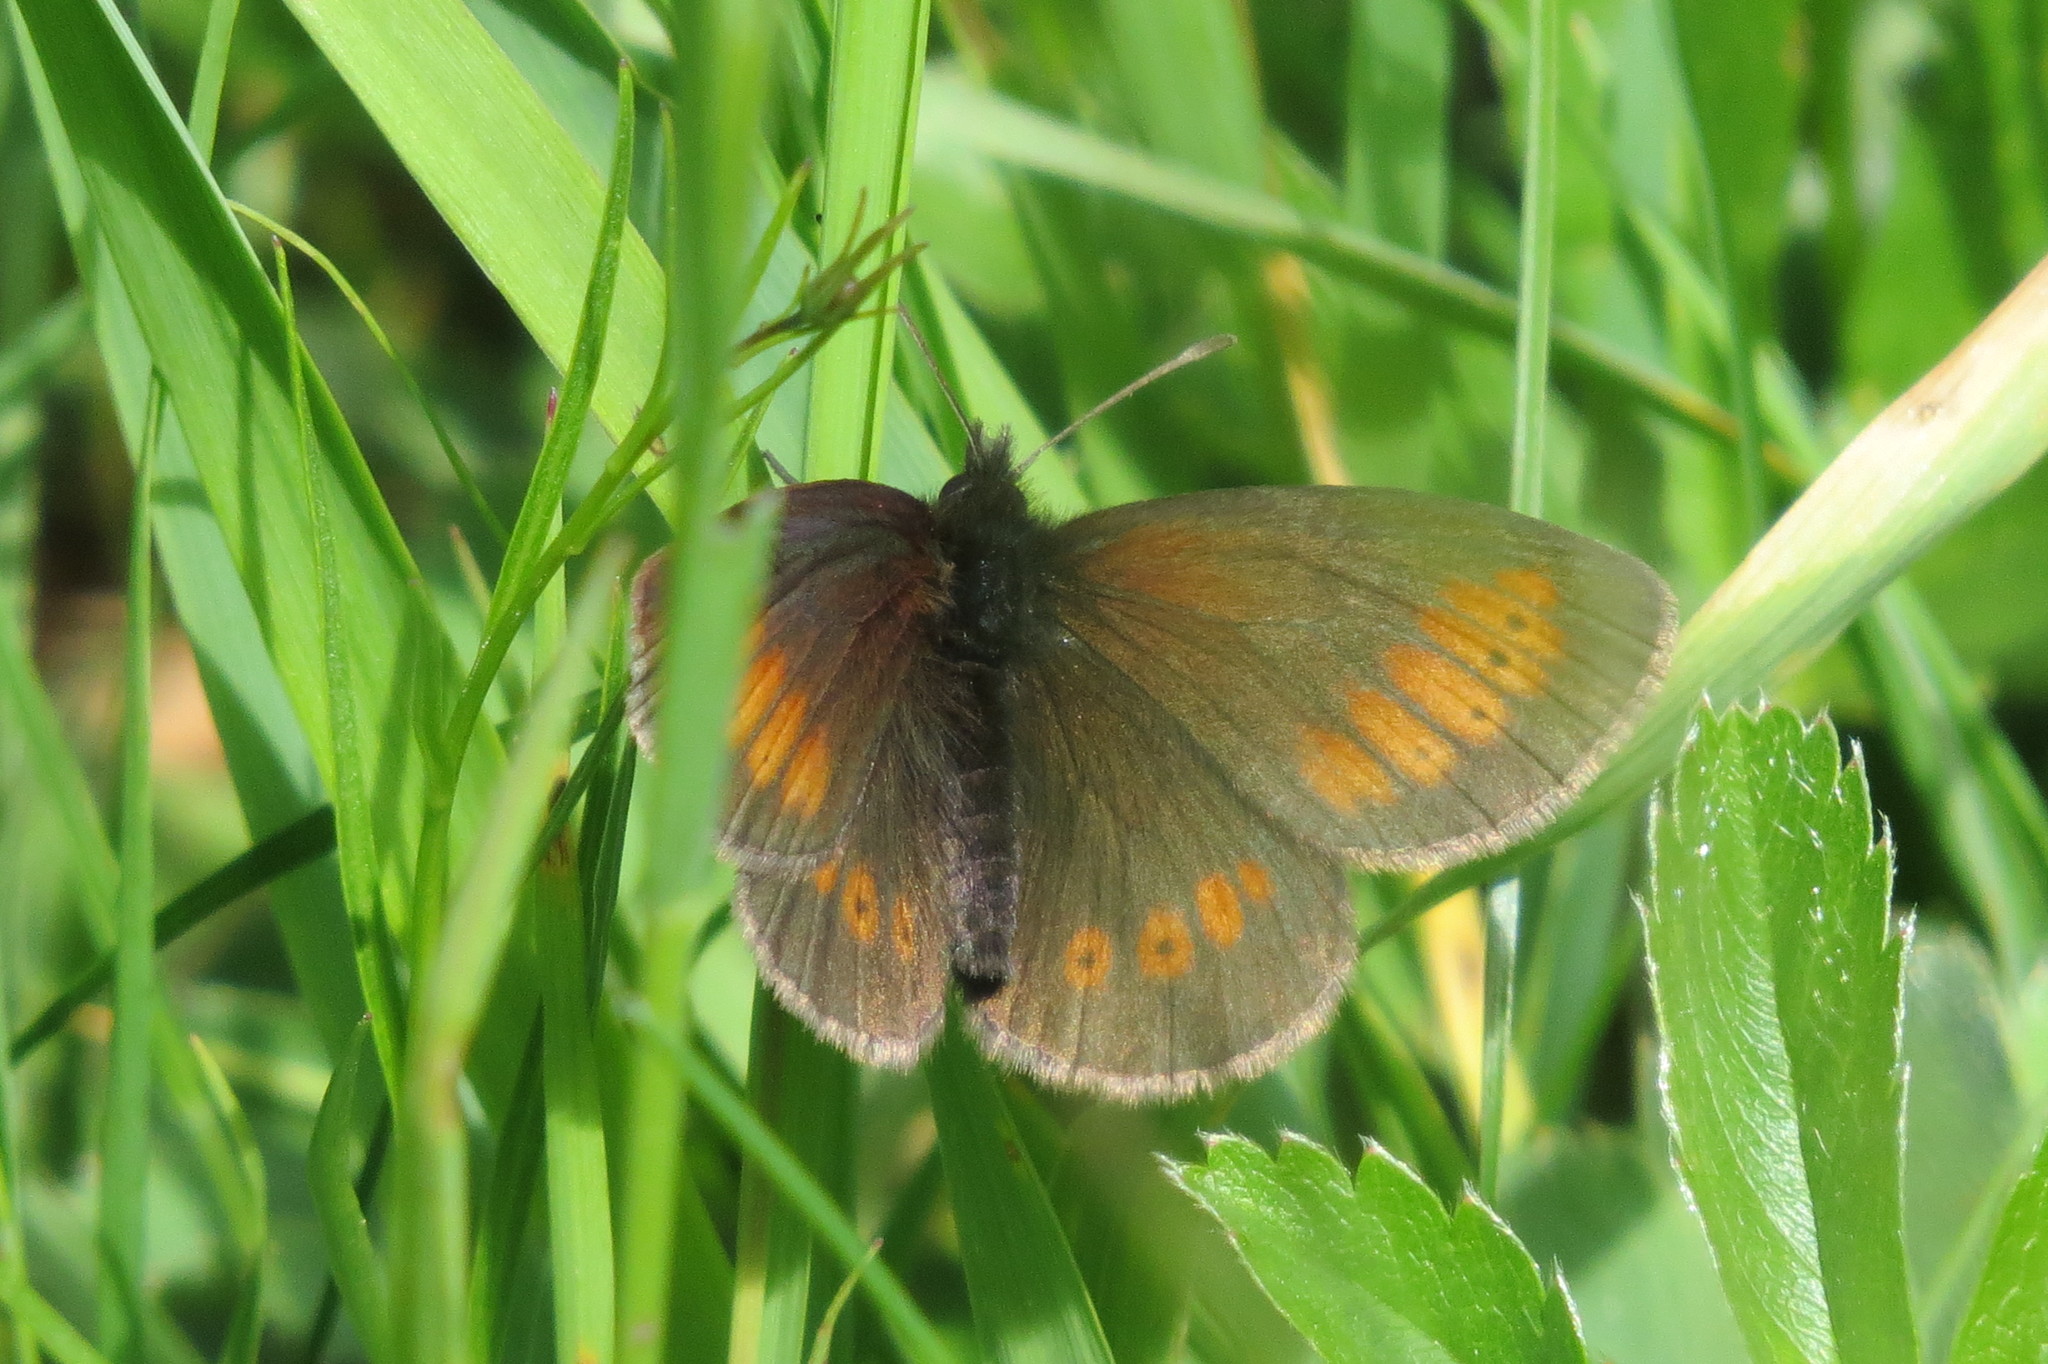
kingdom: Animalia
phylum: Arthropoda
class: Insecta
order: Lepidoptera
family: Nymphalidae
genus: Erebia
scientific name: Erebia melampus
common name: Lesser mountain ringlet
